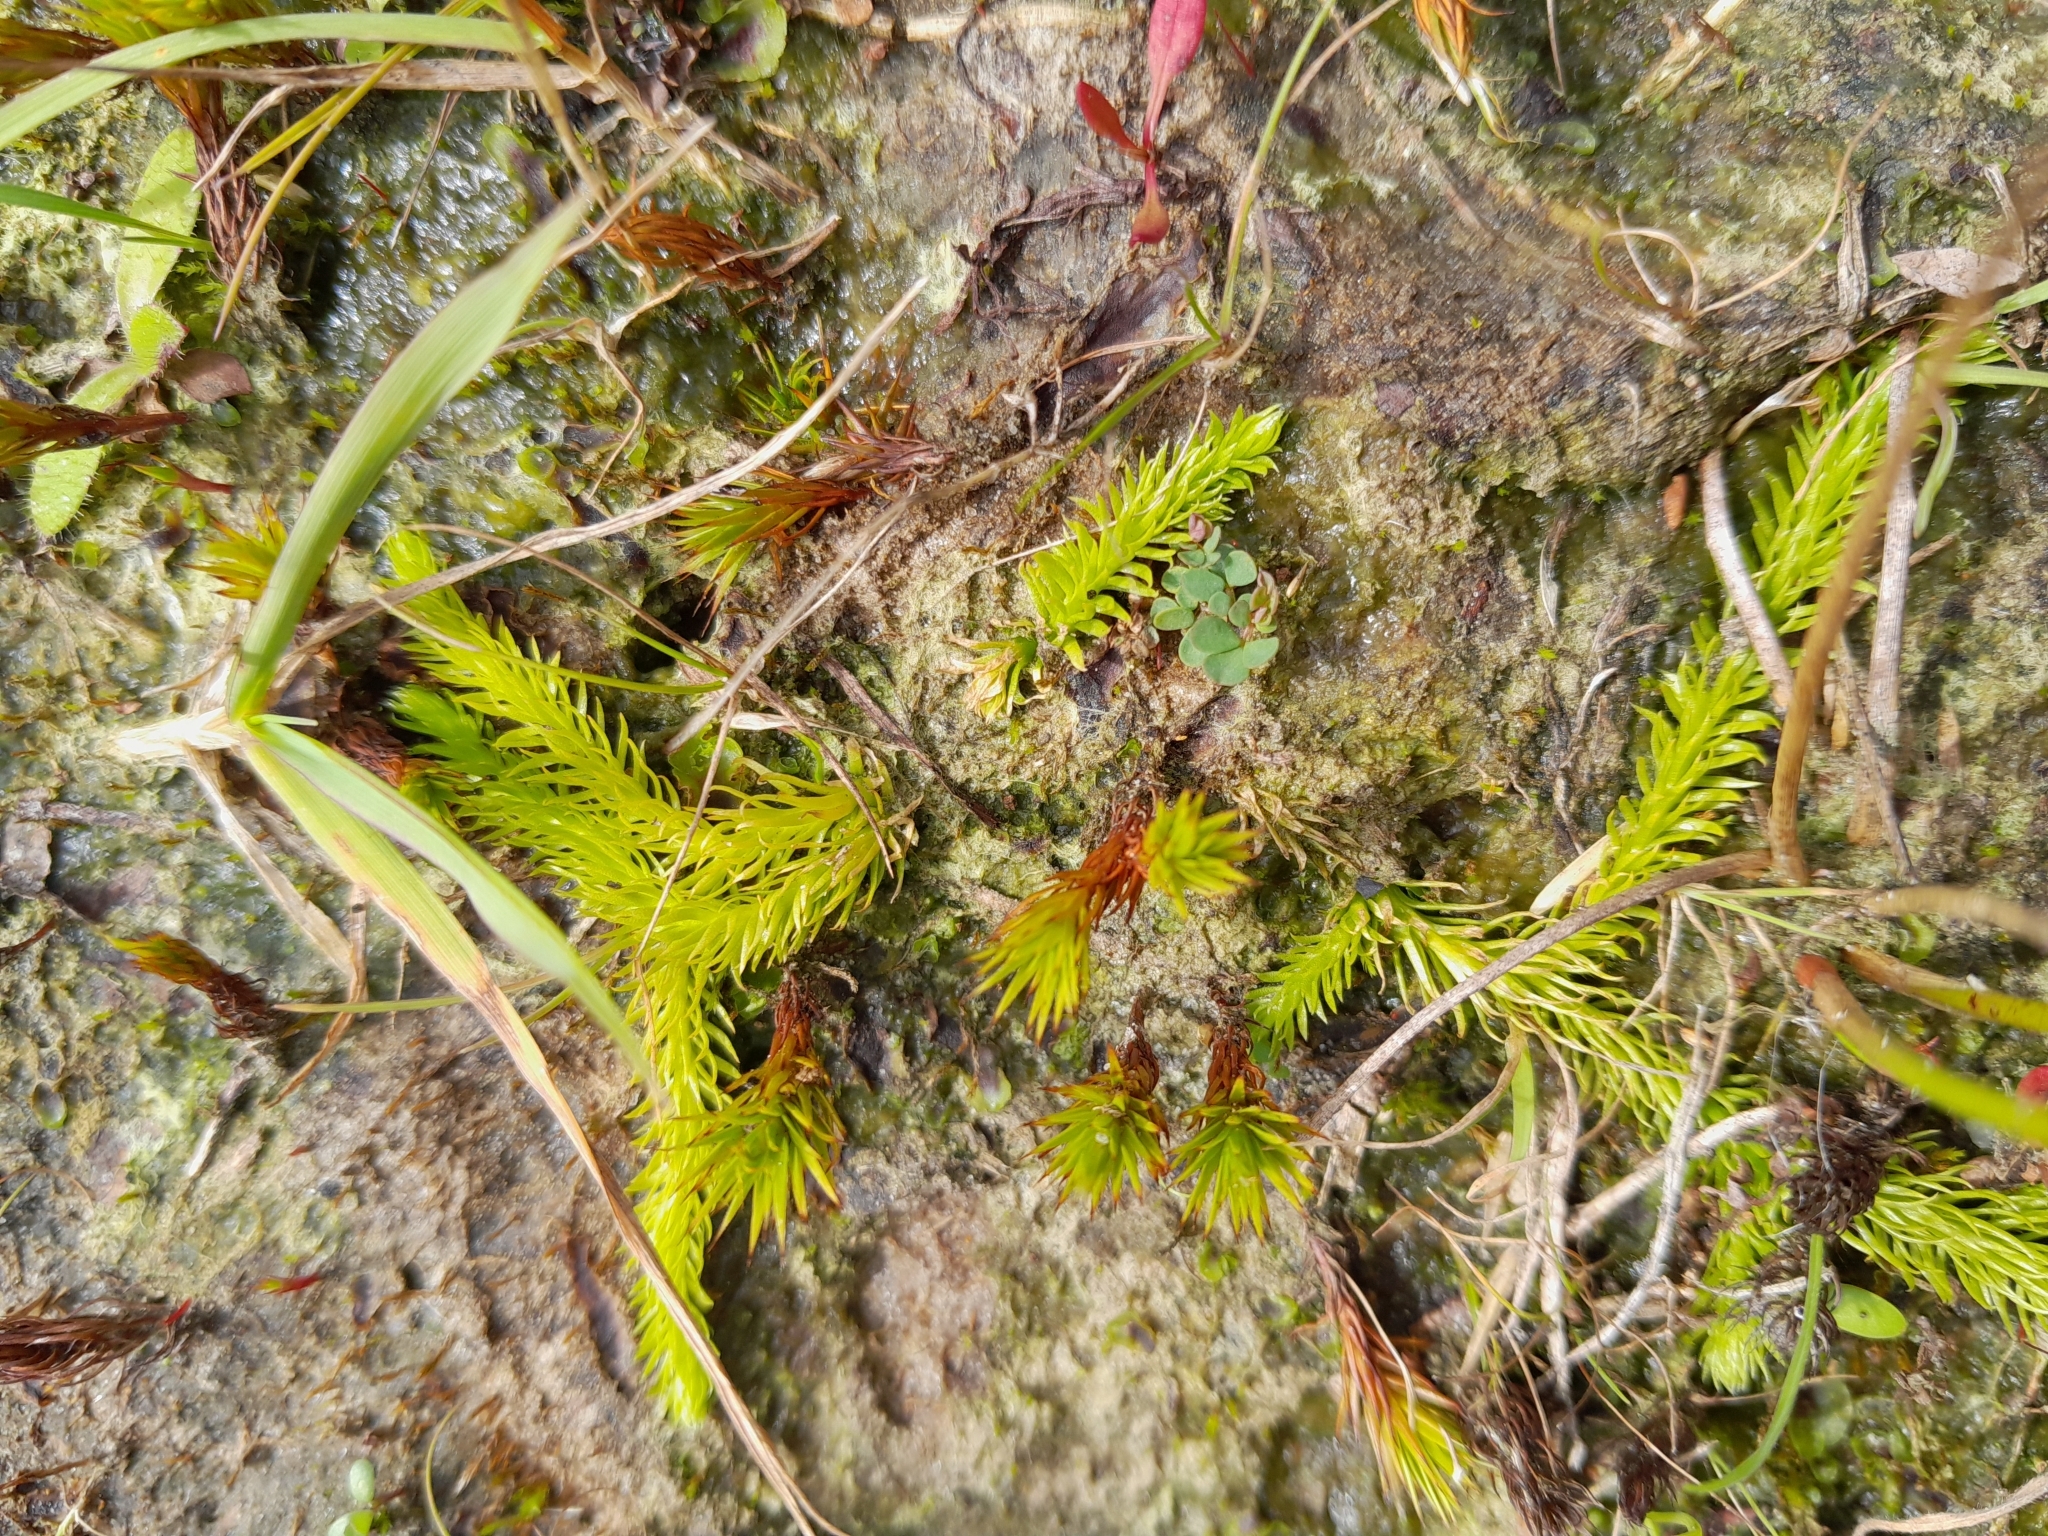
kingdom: Plantae
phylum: Tracheophyta
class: Lycopodiopsida
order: Lycopodiales
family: Lycopodiaceae
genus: Lycopodiella
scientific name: Lycopodiella inundata
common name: Marsh clubmoss
